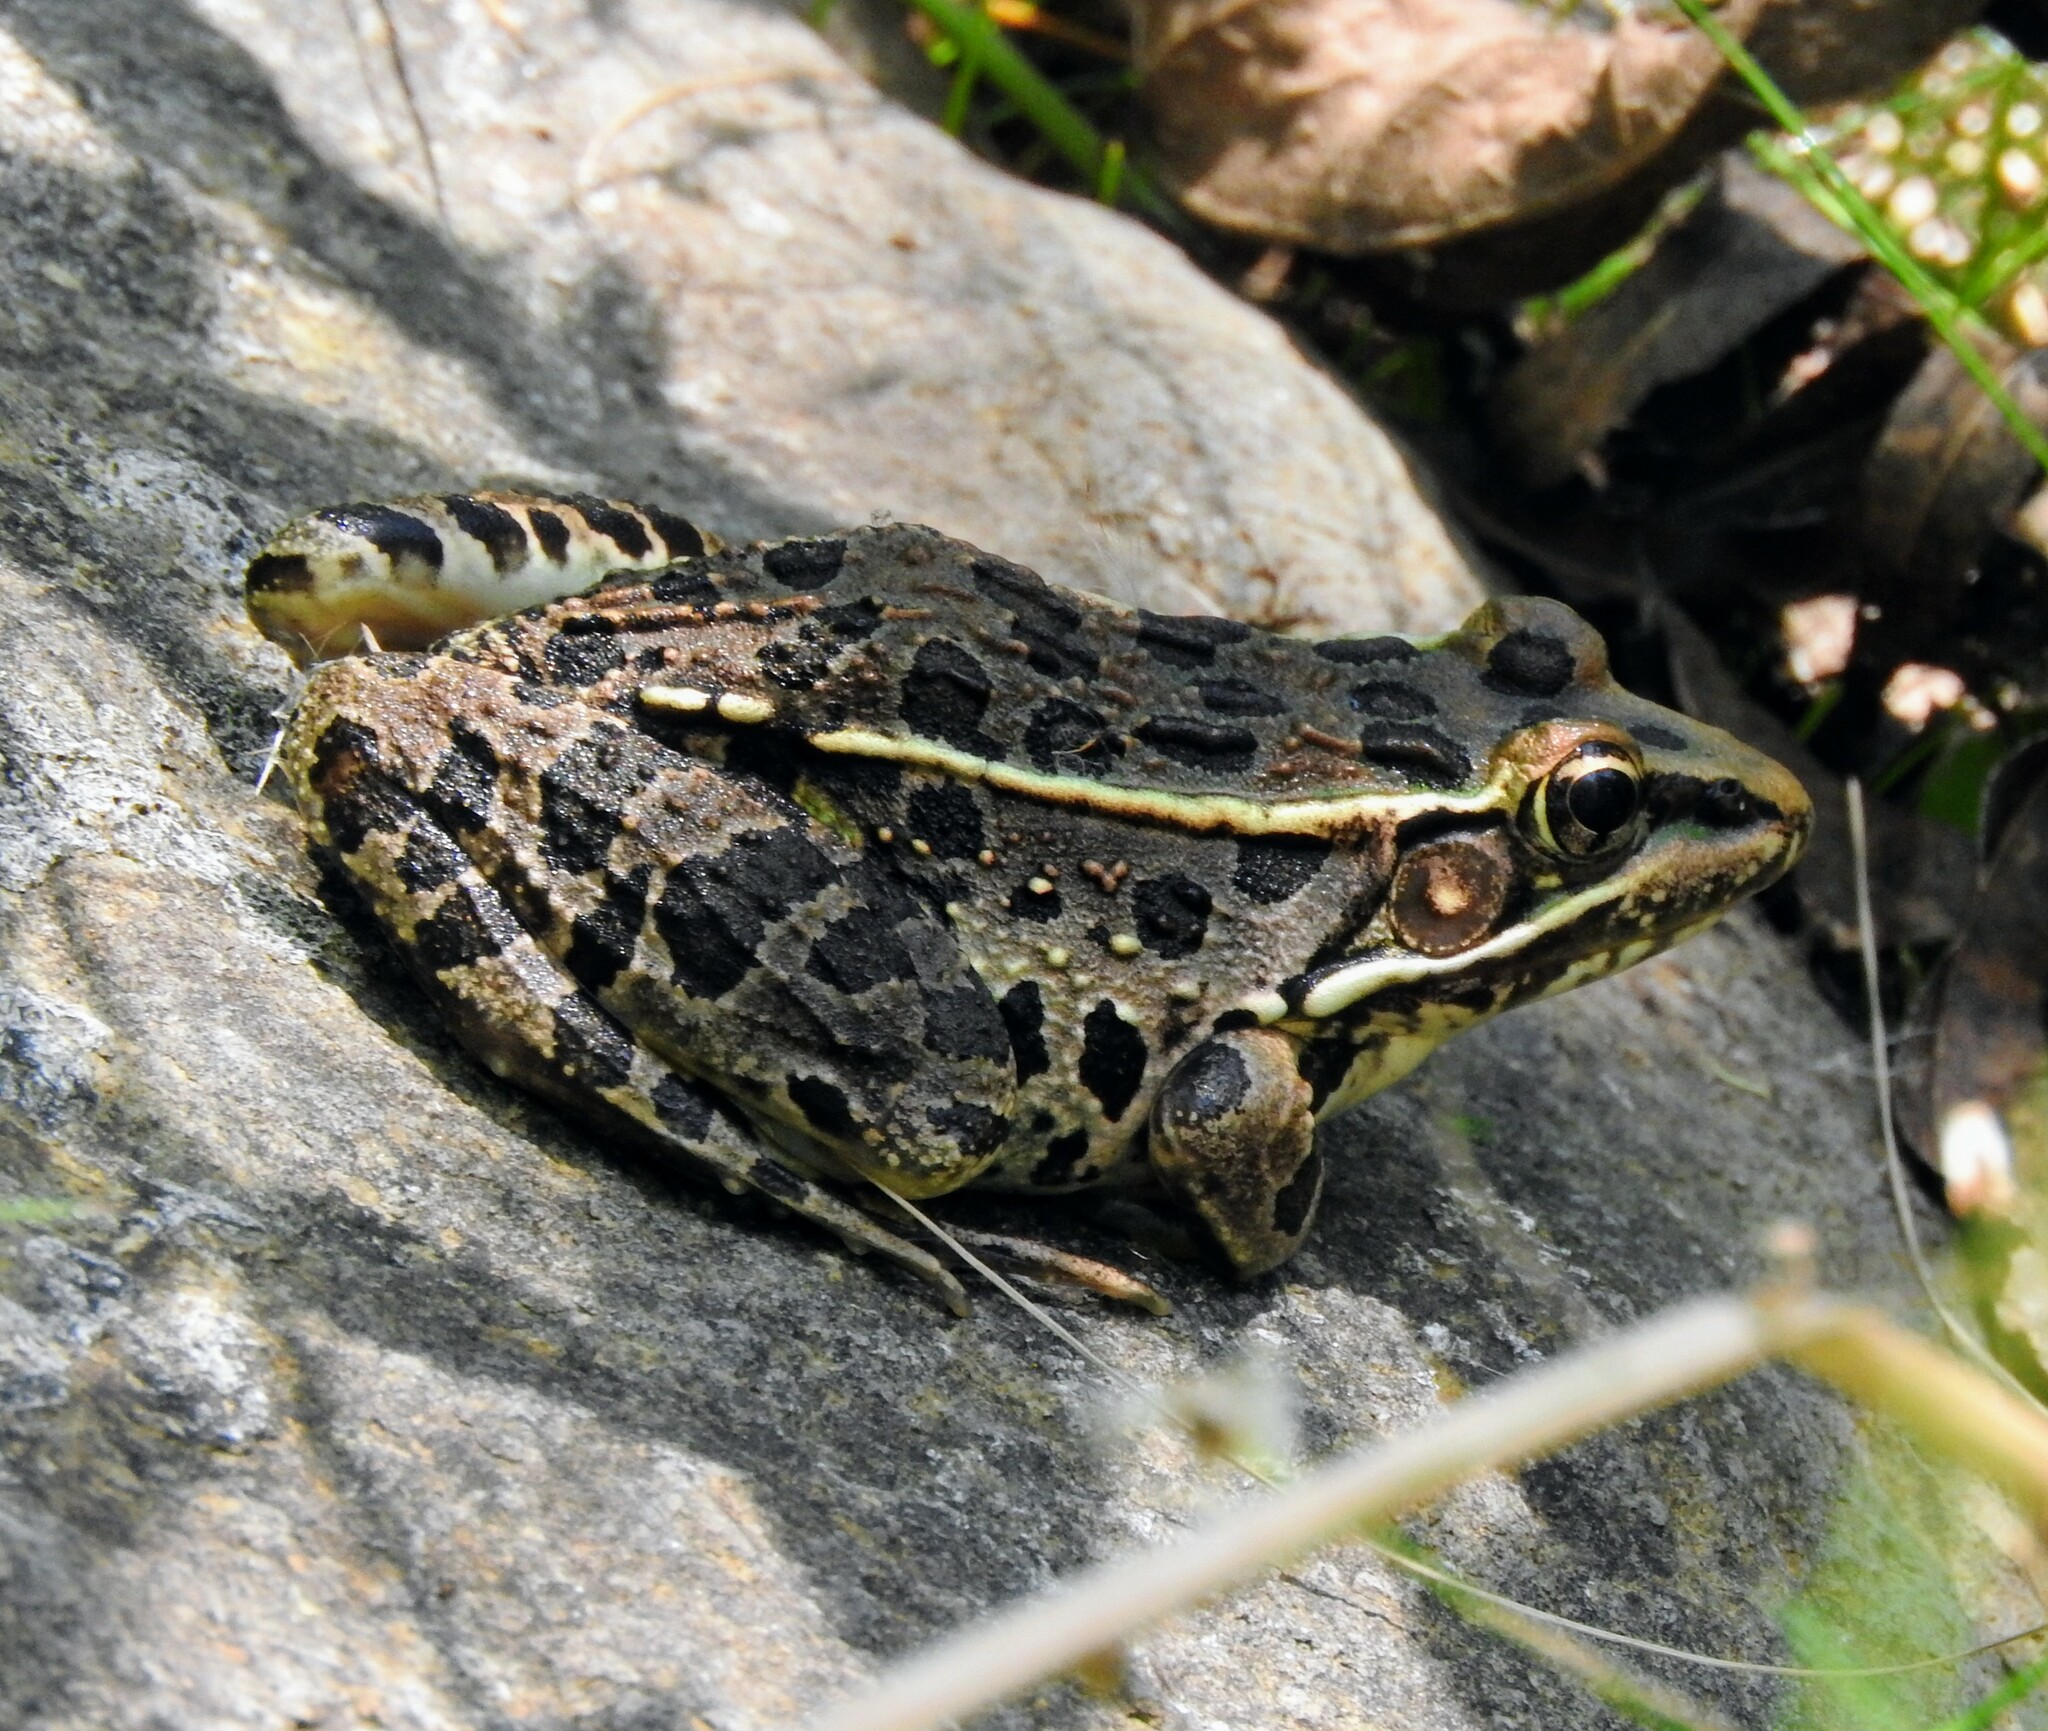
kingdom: Animalia
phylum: Chordata
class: Amphibia
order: Anura
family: Ranidae
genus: Lithobates
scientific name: Lithobates neovolcanicus
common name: Transverse volcanic leopard frog
